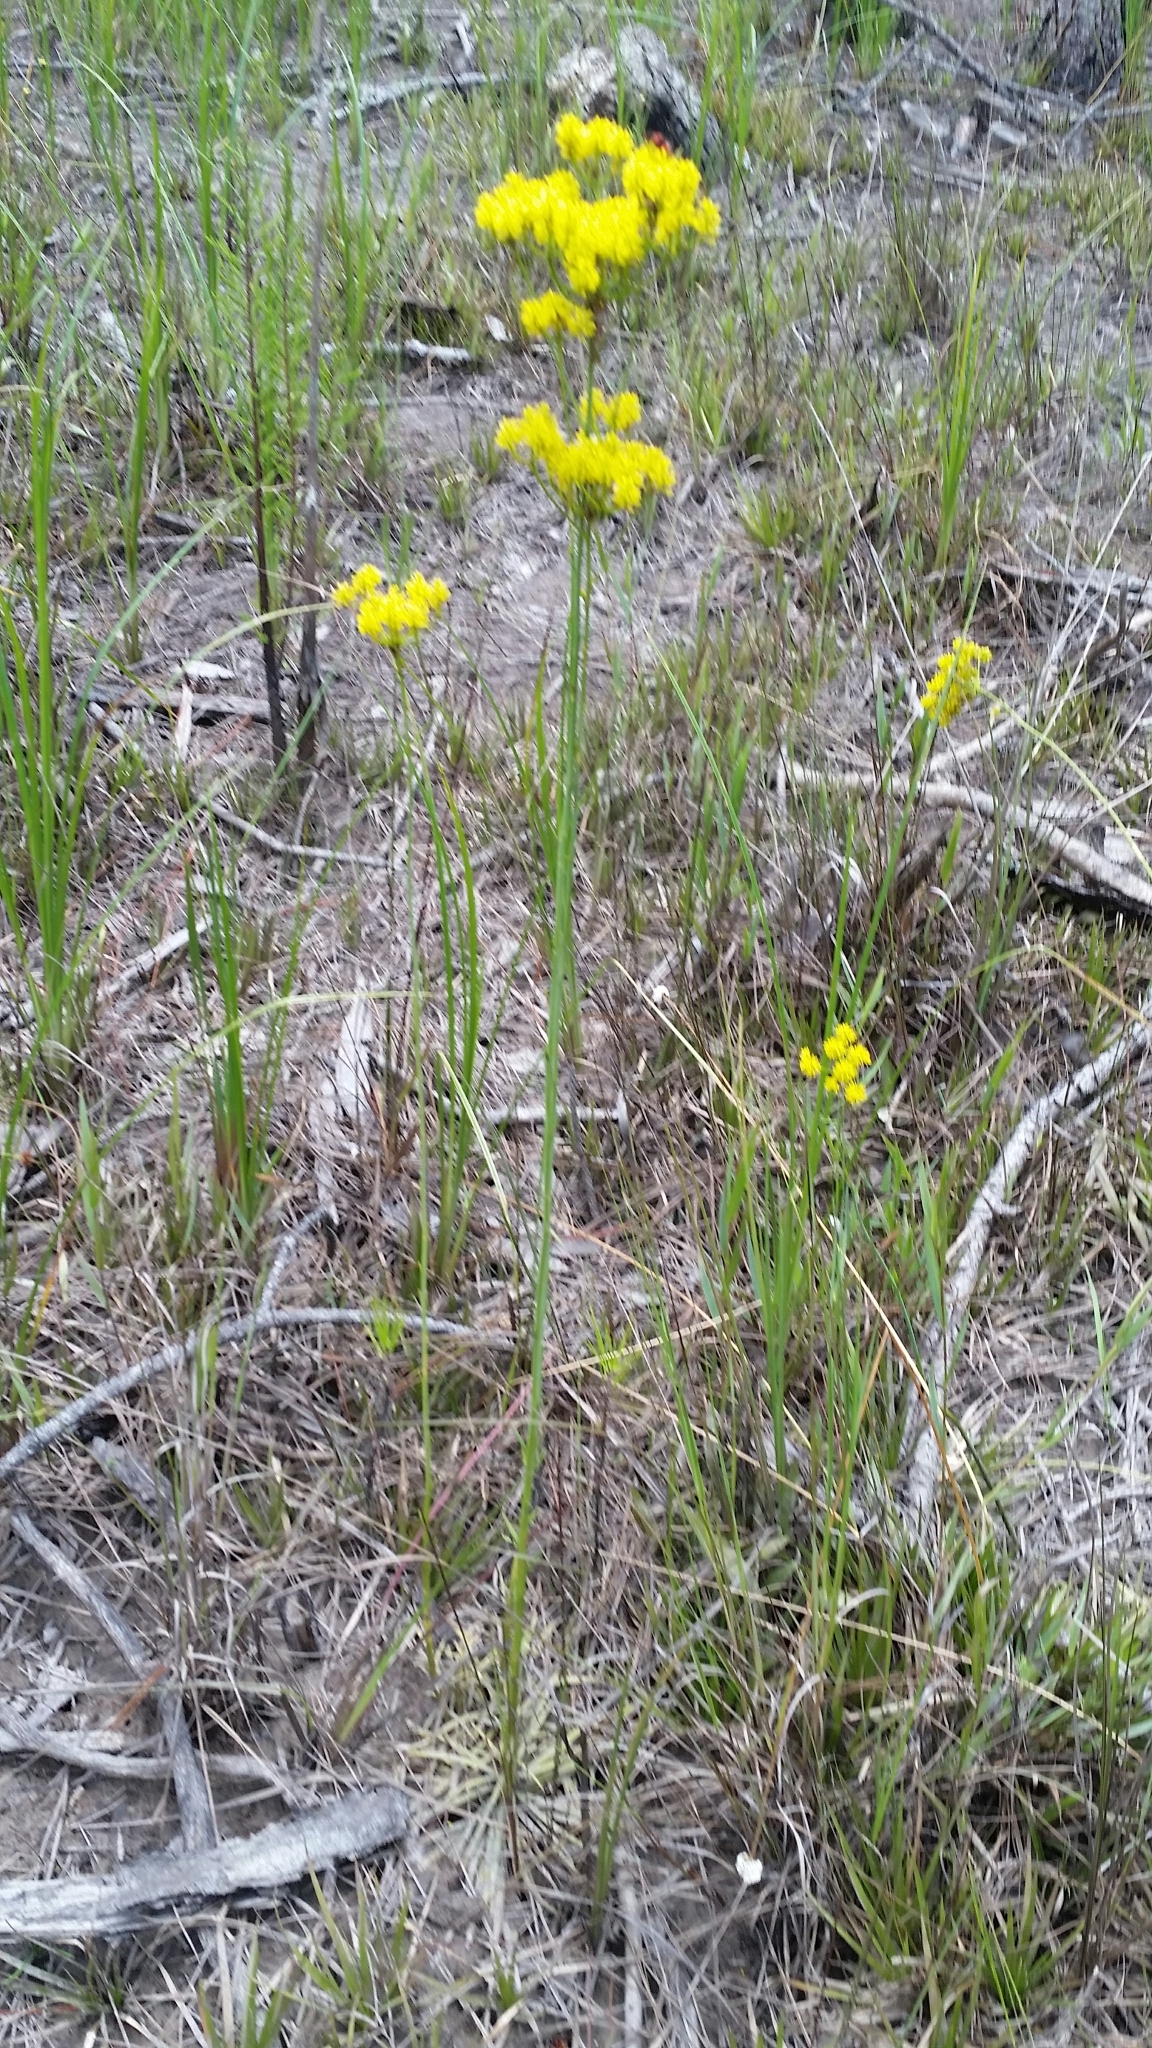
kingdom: Plantae
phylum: Tracheophyta
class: Magnoliopsida
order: Fabales
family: Polygalaceae
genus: Polygala
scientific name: Polygala cymosa
